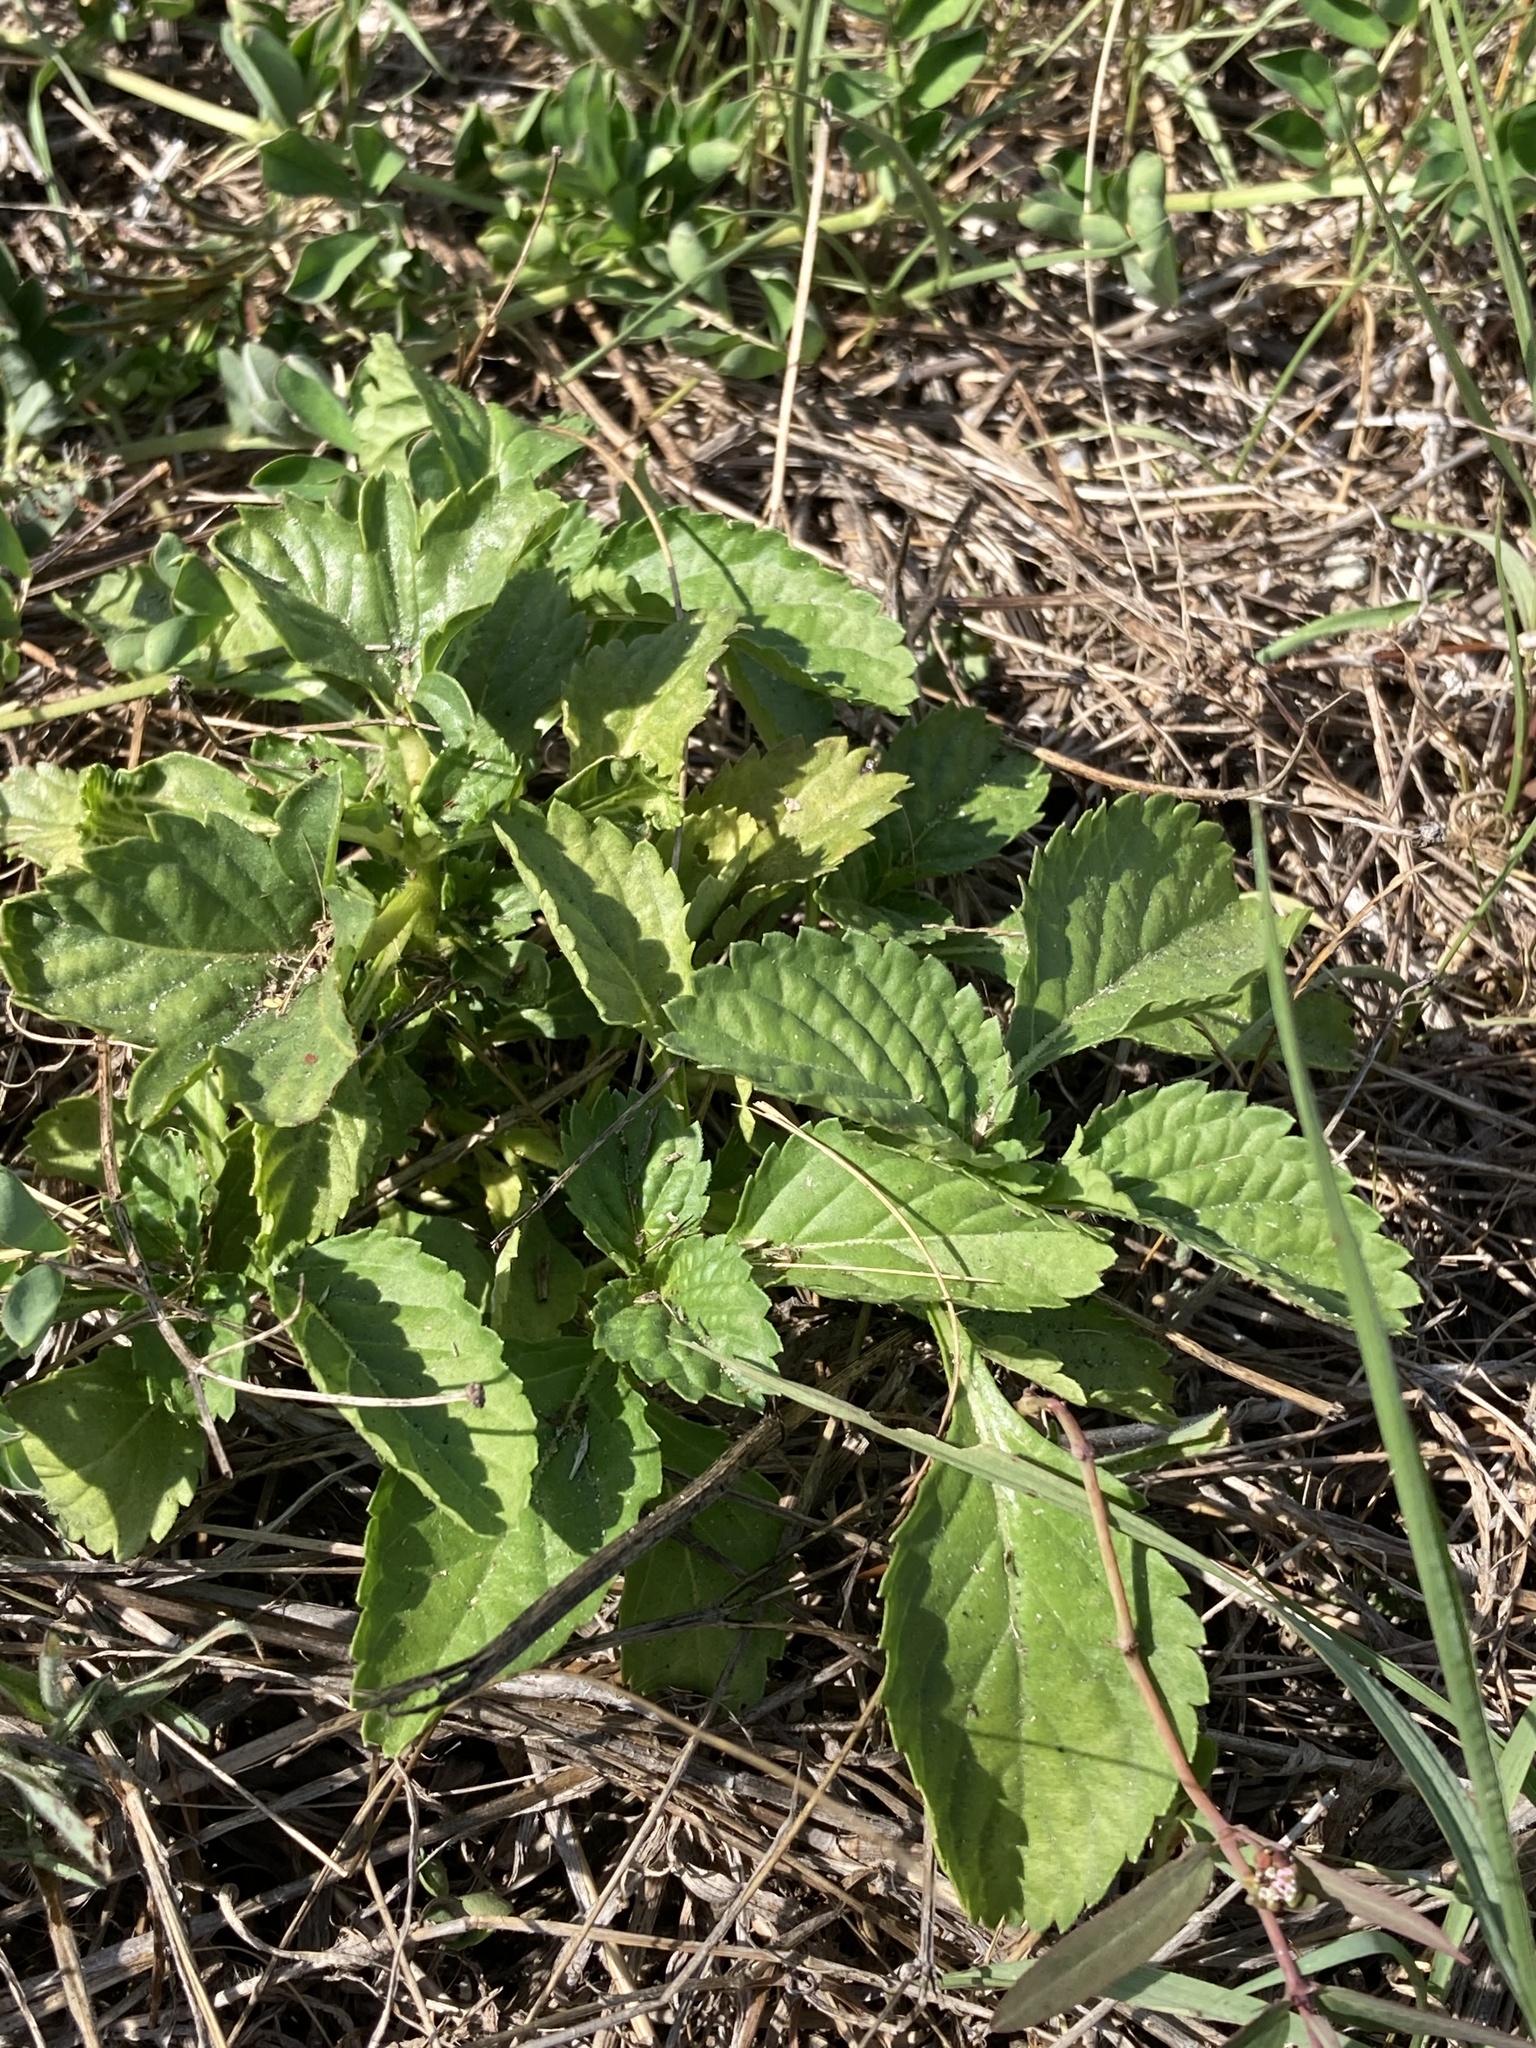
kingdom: Plantae
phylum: Tracheophyta
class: Magnoliopsida
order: Lamiales
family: Verbenaceae
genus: Stachytarpheta
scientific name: Stachytarpheta jamaicensis
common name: Light-blue snakeweed
